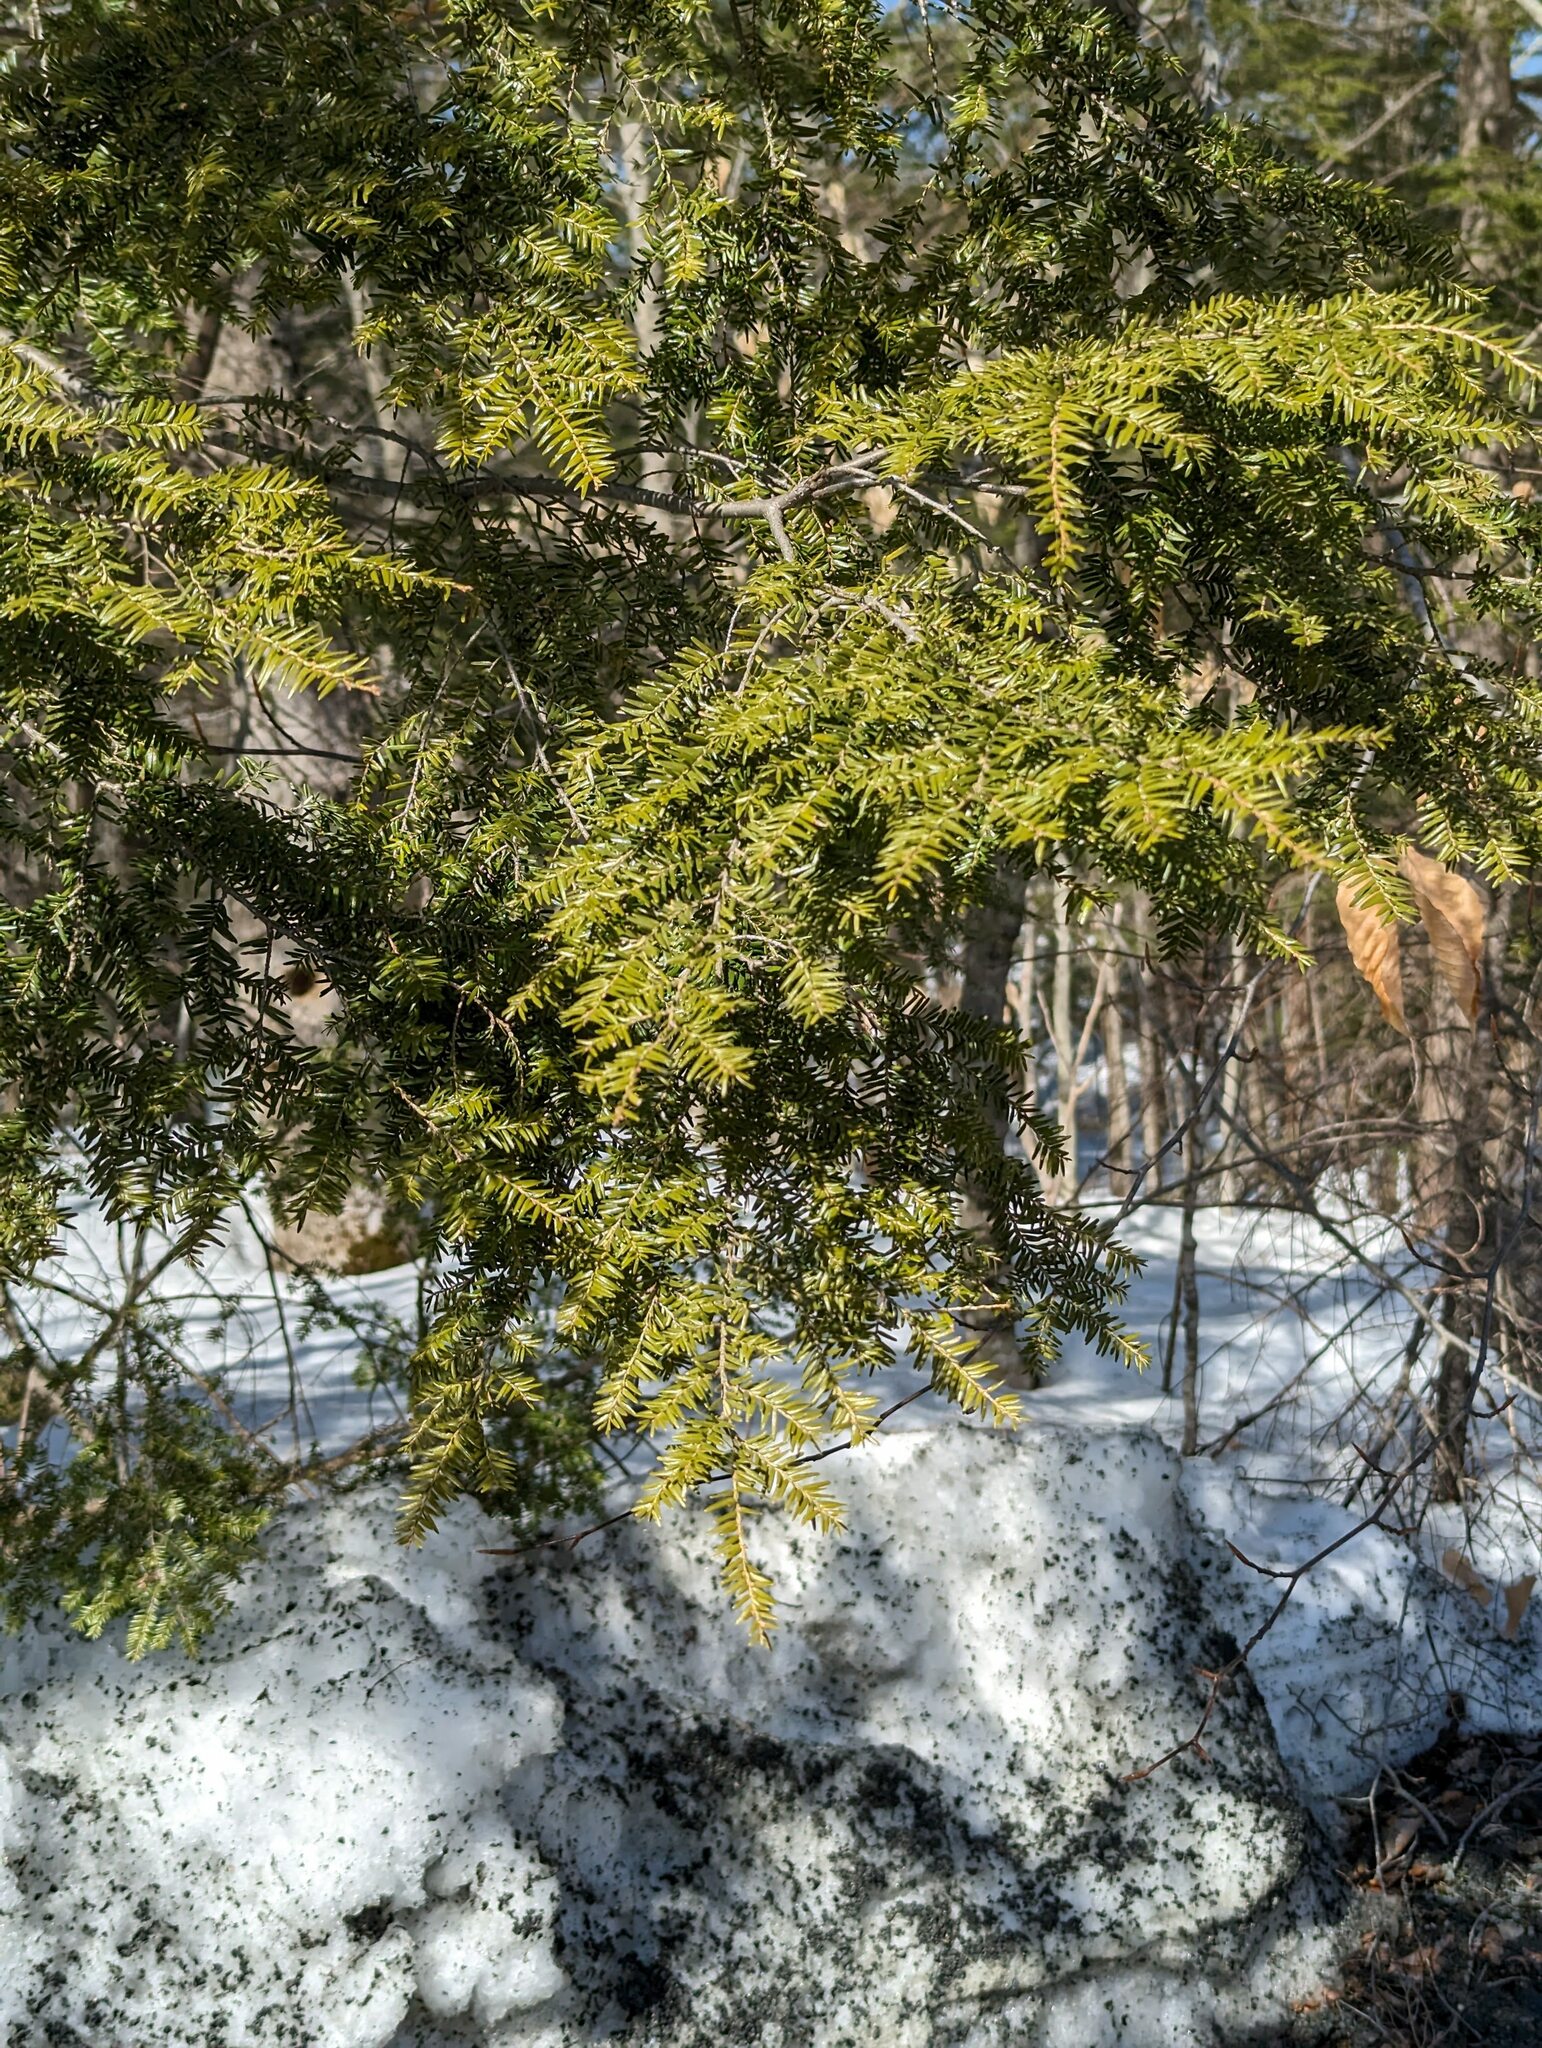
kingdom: Plantae
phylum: Tracheophyta
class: Pinopsida
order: Pinales
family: Pinaceae
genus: Tsuga
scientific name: Tsuga canadensis
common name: Eastern hemlock
